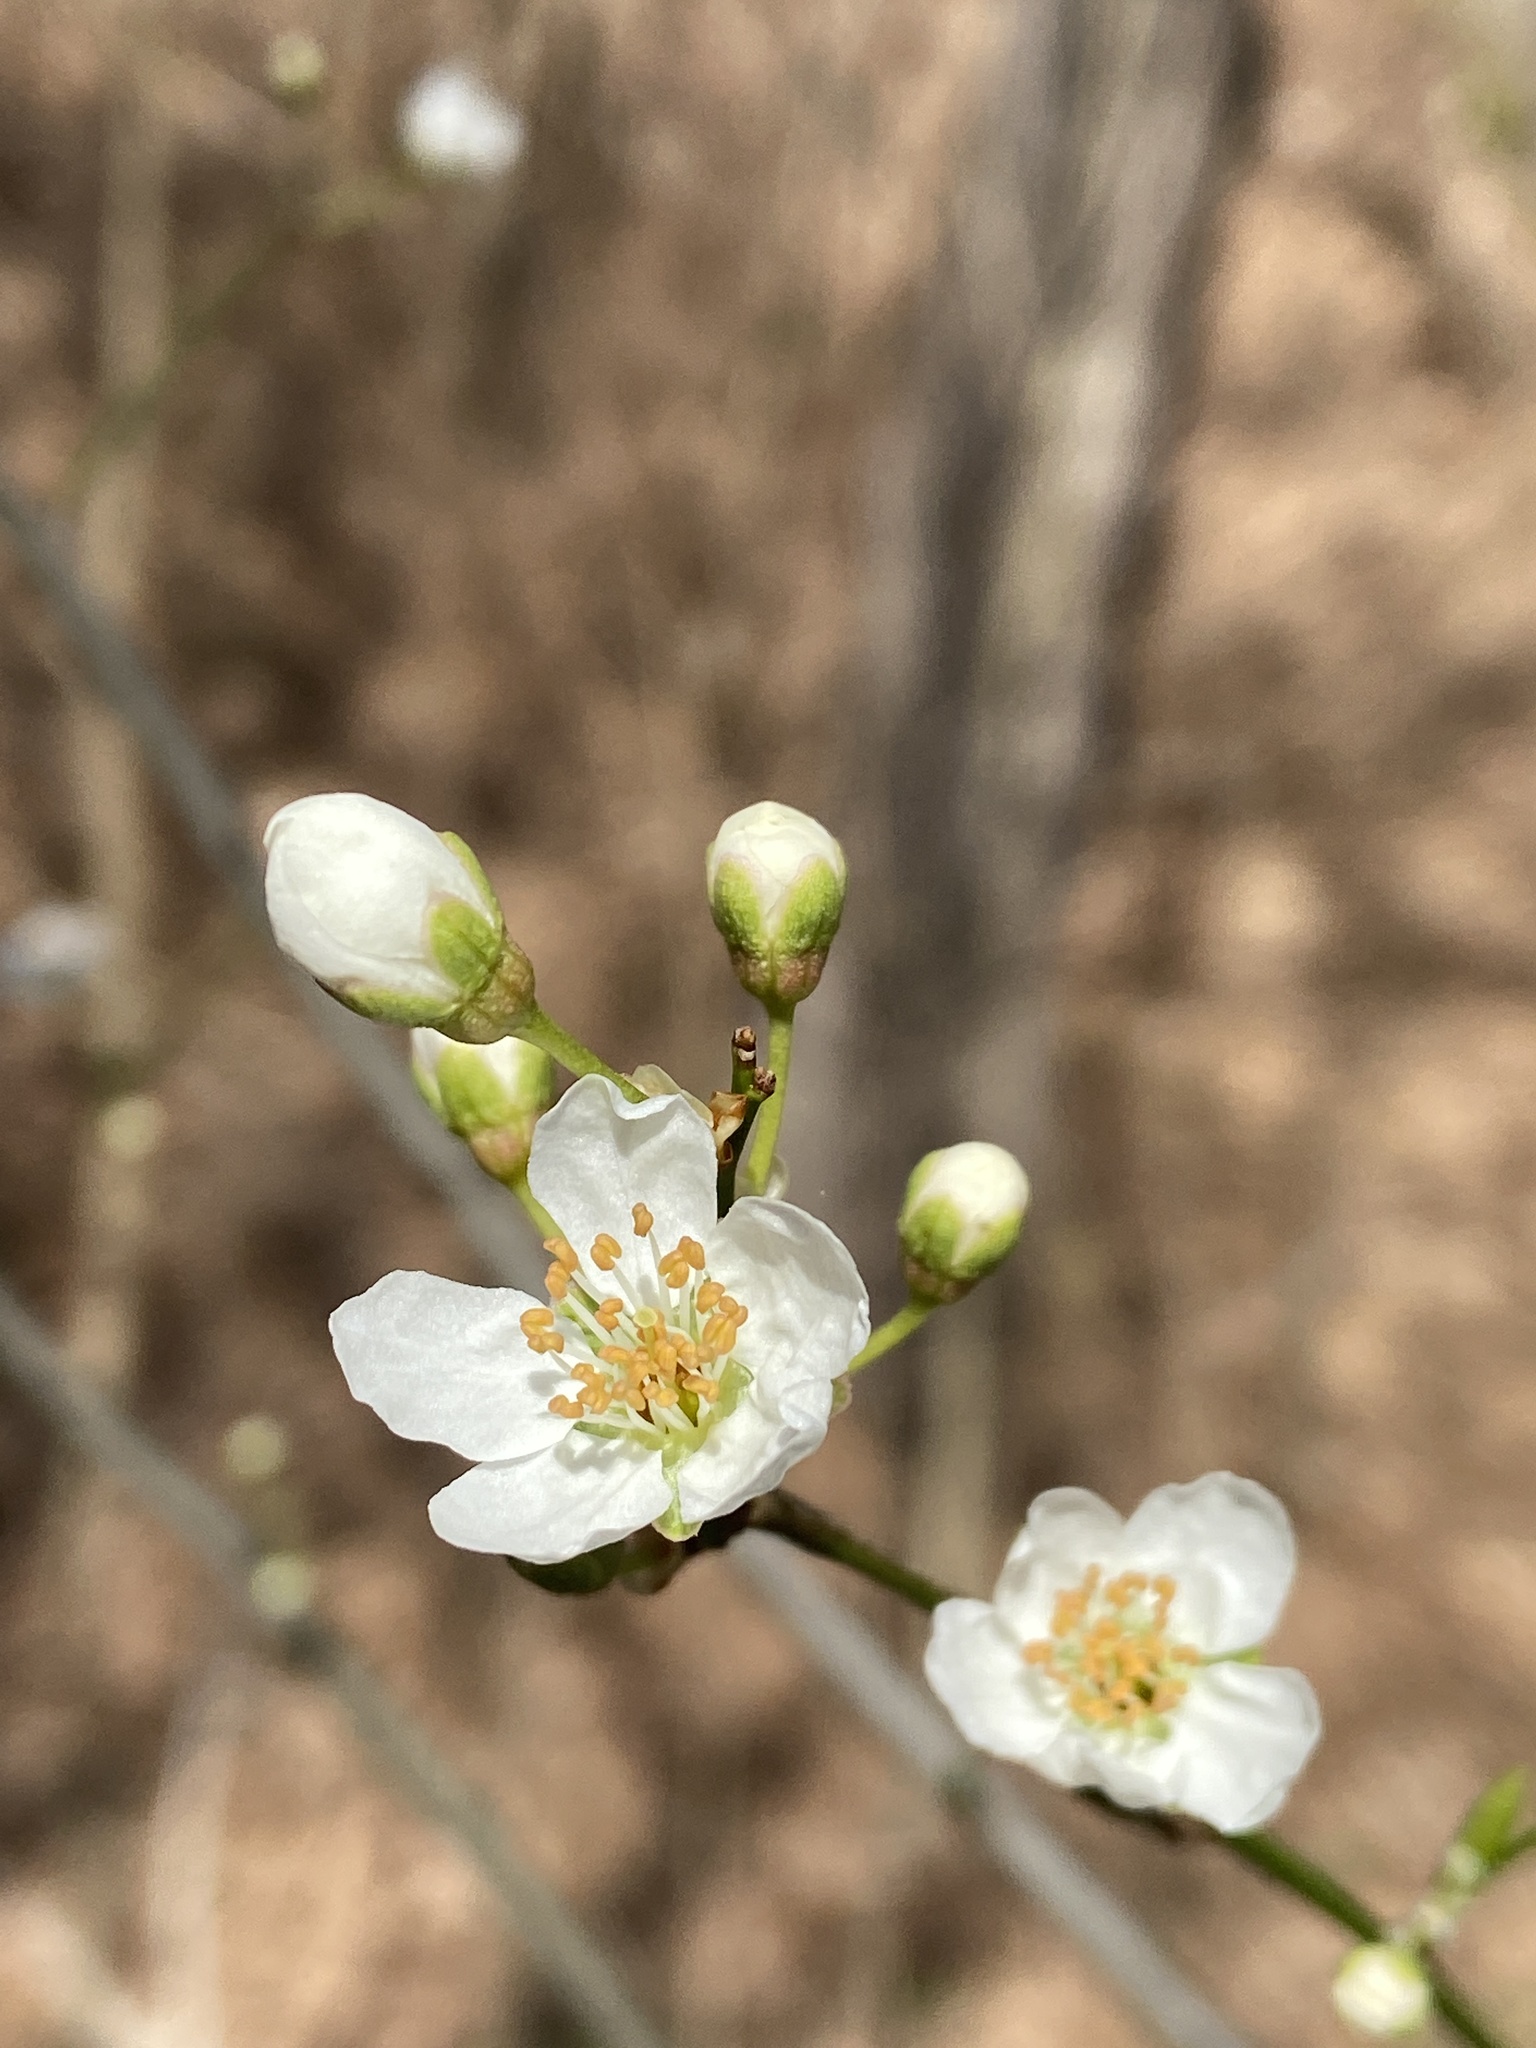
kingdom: Plantae
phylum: Tracheophyta
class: Magnoliopsida
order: Rosales
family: Rosaceae
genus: Prunus
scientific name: Prunus cerasifera
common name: Cherry plum
